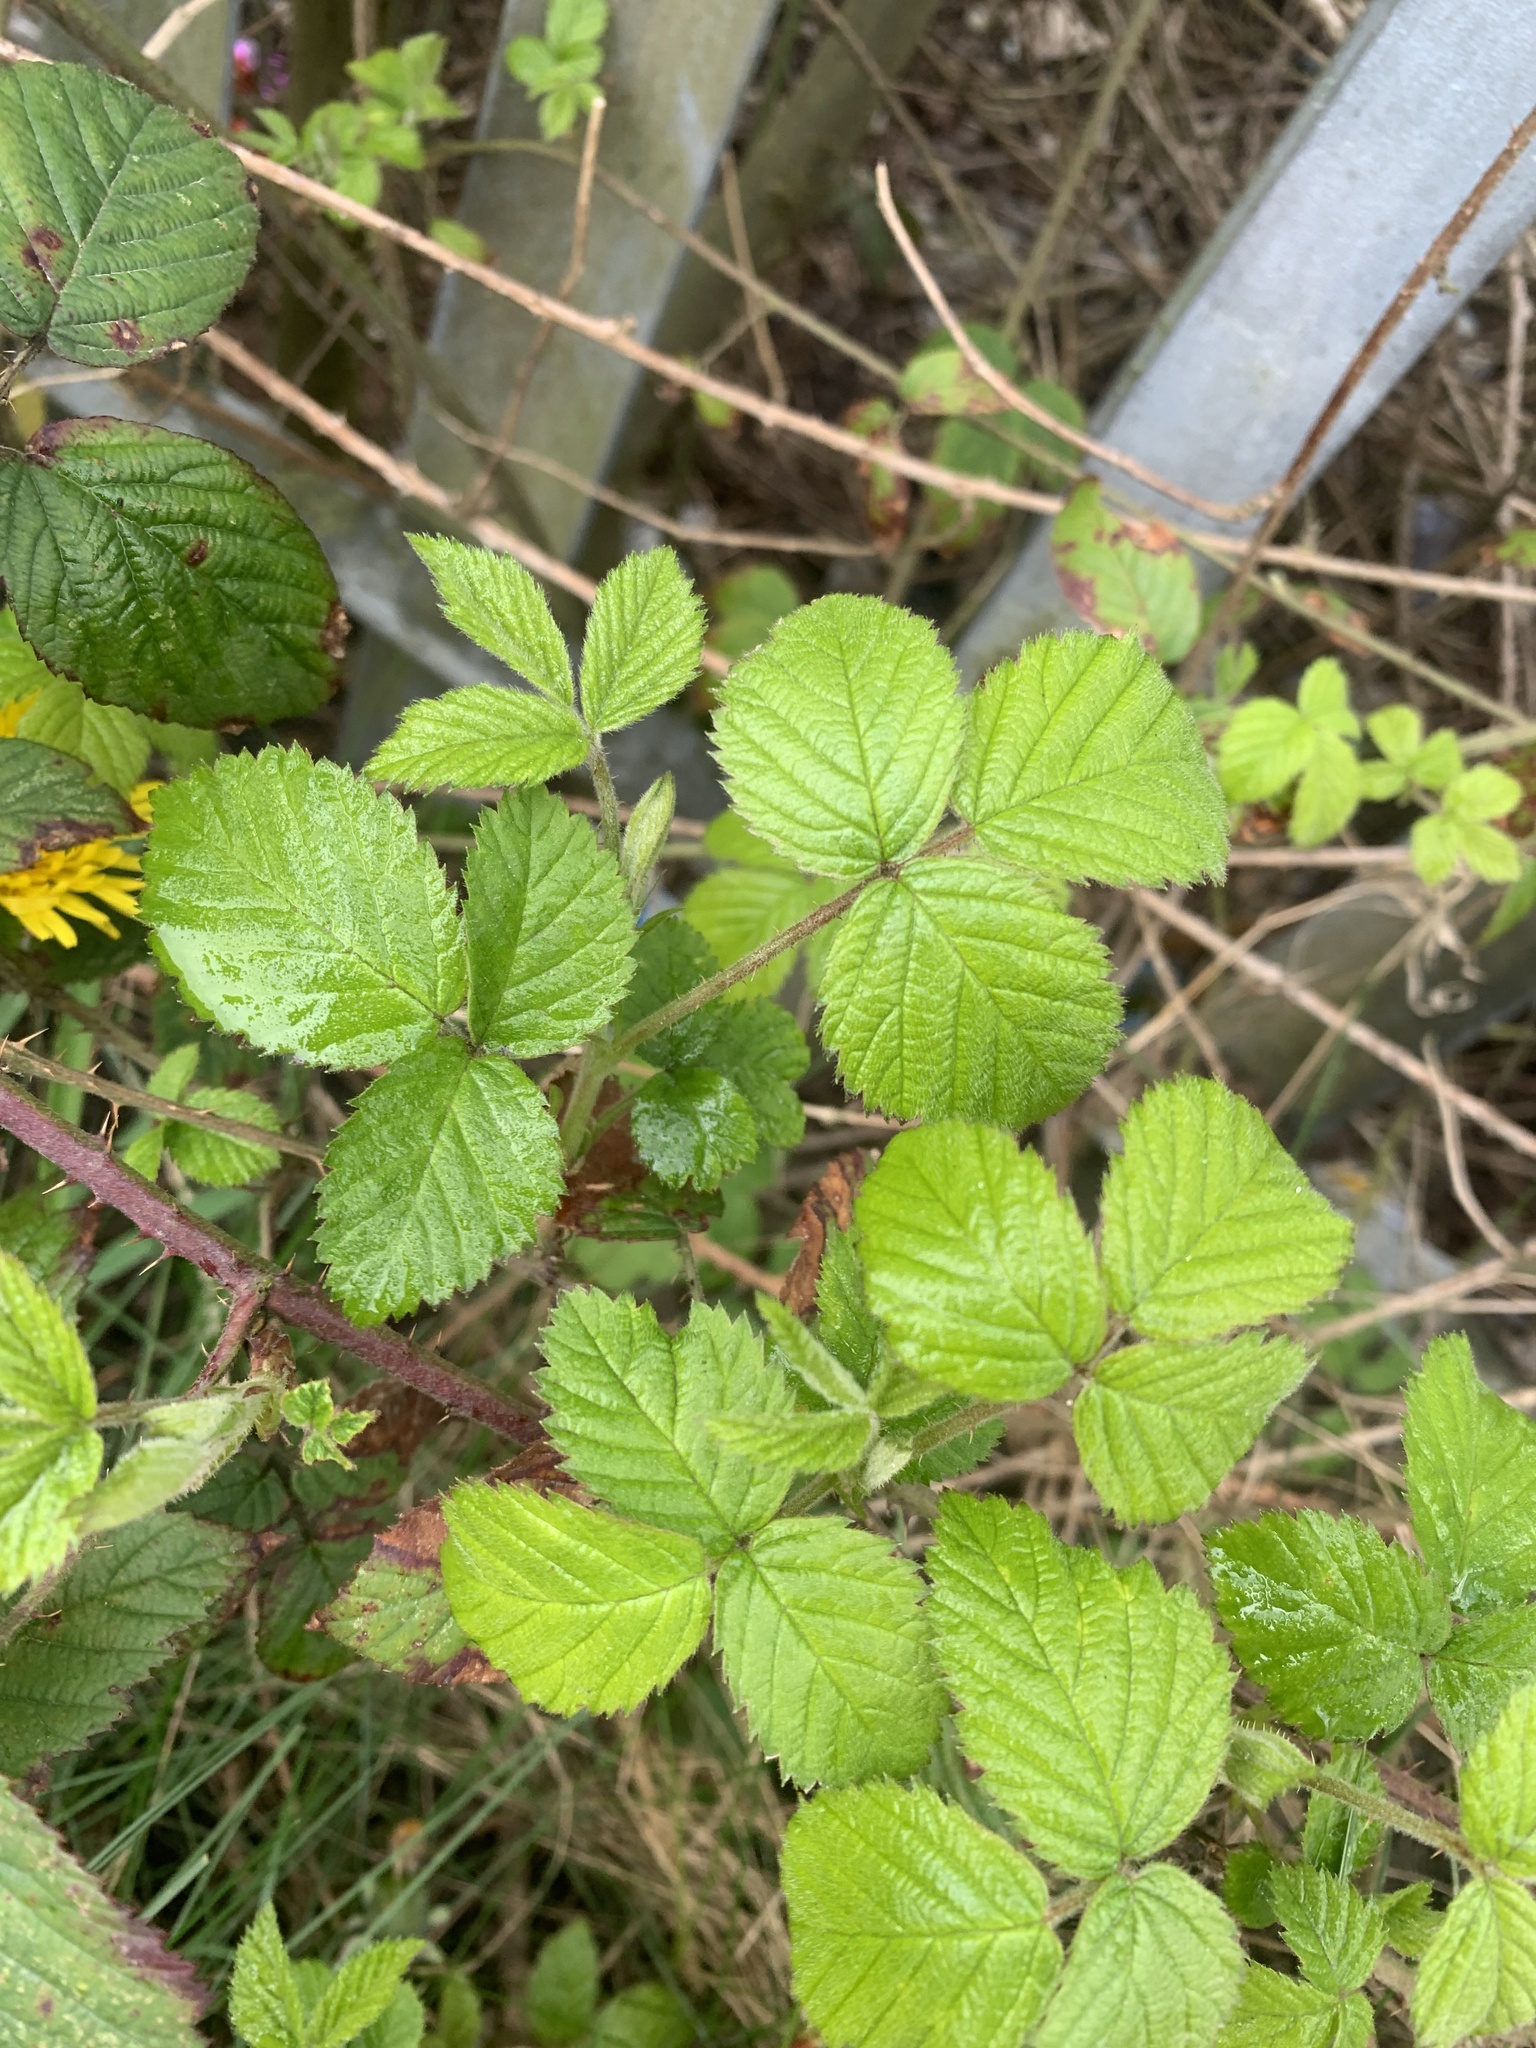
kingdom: Plantae
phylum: Tracheophyta
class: Magnoliopsida
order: Rosales
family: Rosaceae
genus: Rubus
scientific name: Rubus fruticosus
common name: Blackberry, bramble
